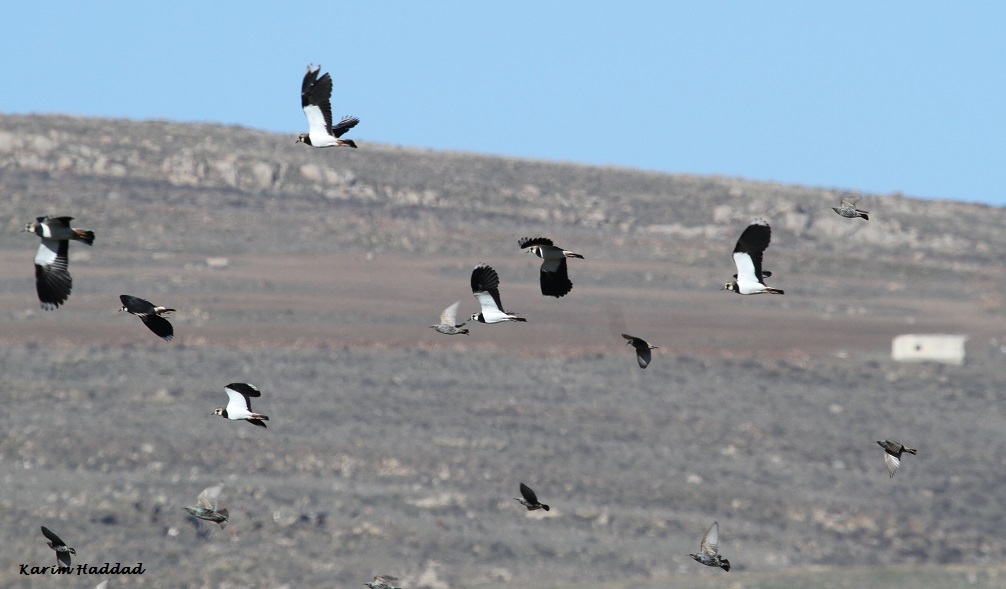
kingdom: Animalia
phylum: Chordata
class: Aves
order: Charadriiformes
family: Charadriidae
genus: Vanellus
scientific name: Vanellus vanellus
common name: Northern lapwing
